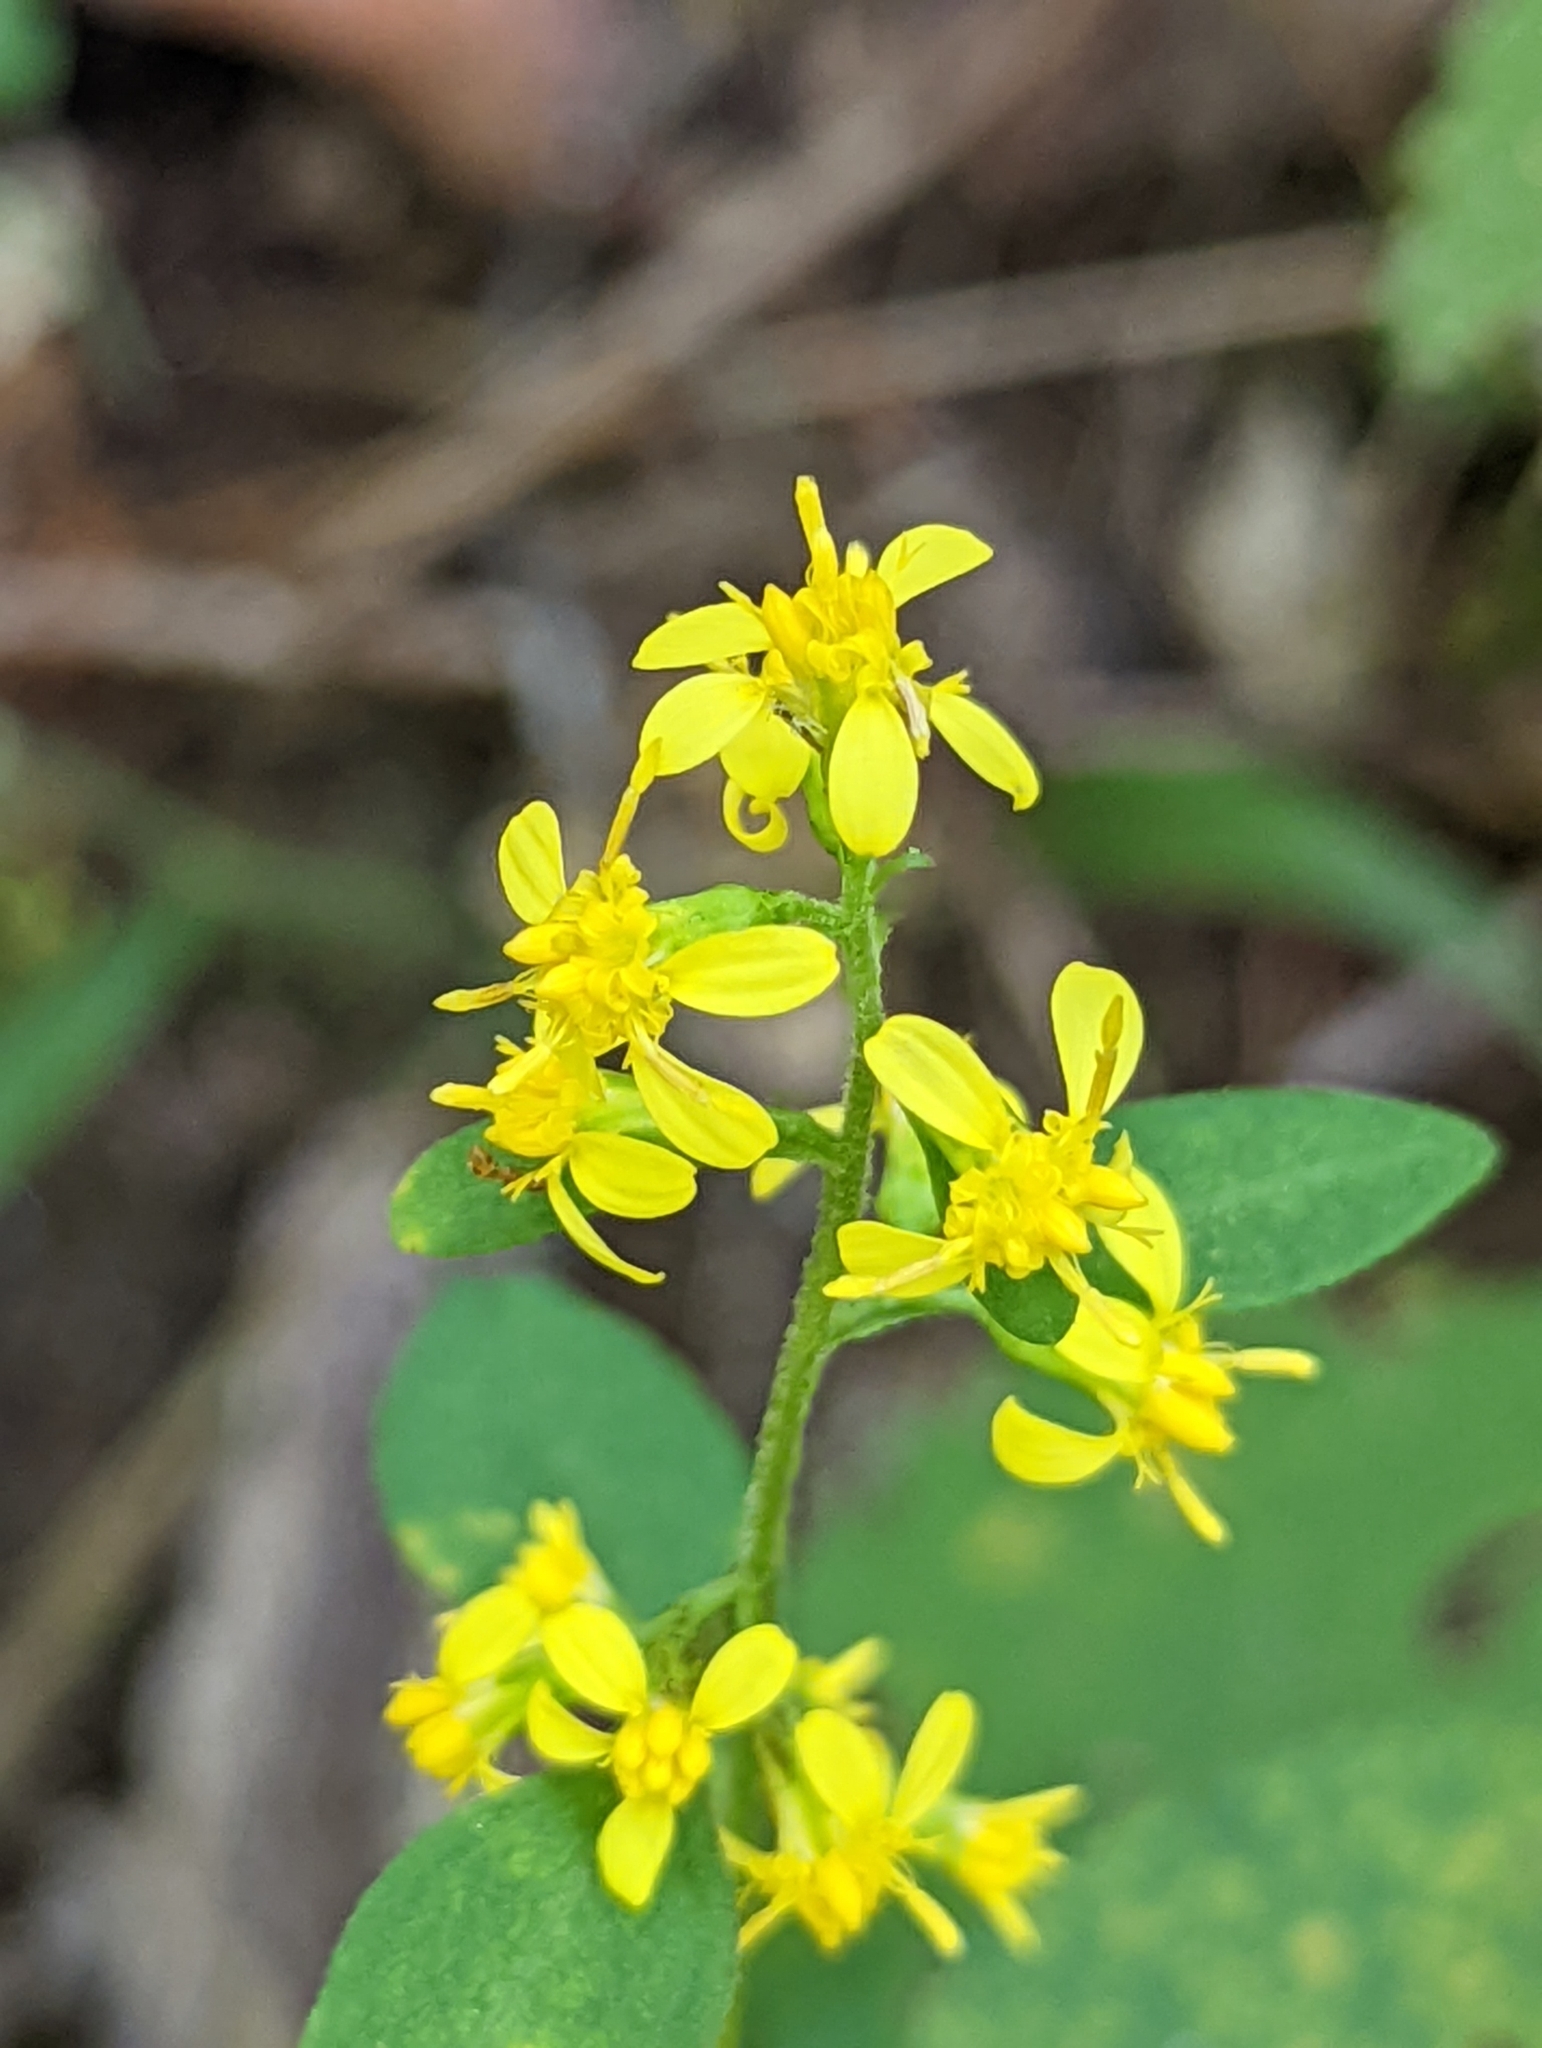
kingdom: Plantae
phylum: Tracheophyta
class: Magnoliopsida
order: Asterales
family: Asteraceae
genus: Solidago
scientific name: Solidago flexicaulis
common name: Zig-zag goldenrod
